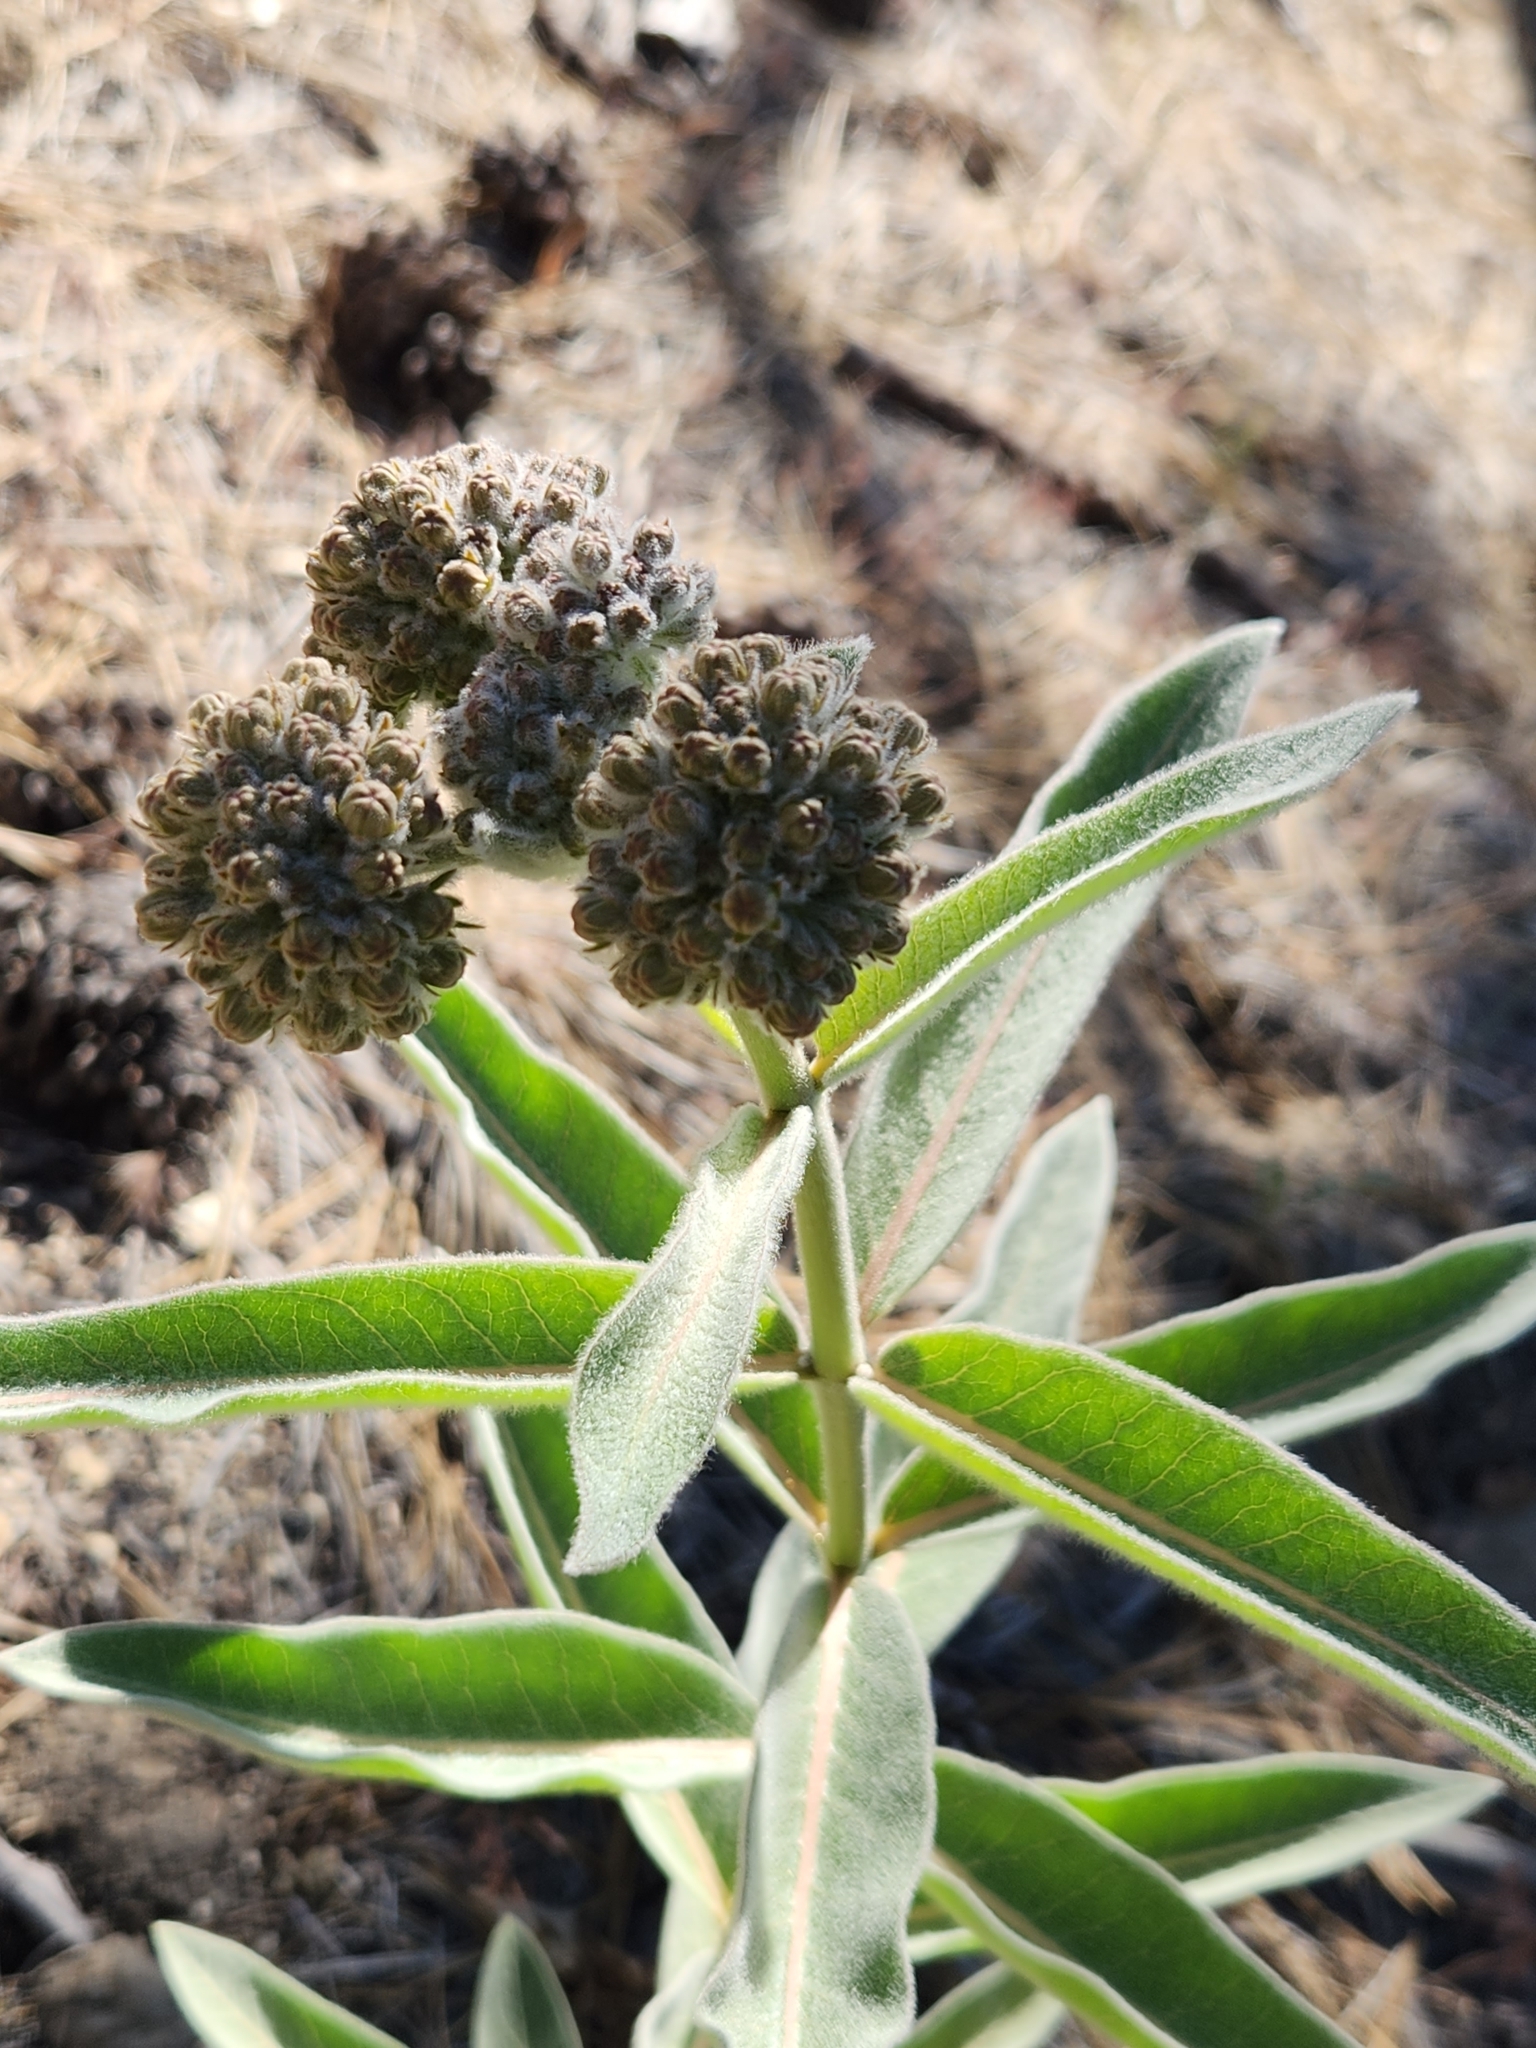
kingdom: Plantae
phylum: Tracheophyta
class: Magnoliopsida
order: Gentianales
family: Apocynaceae
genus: Asclepias
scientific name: Asclepias eriocarpa
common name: Indian milkweed
